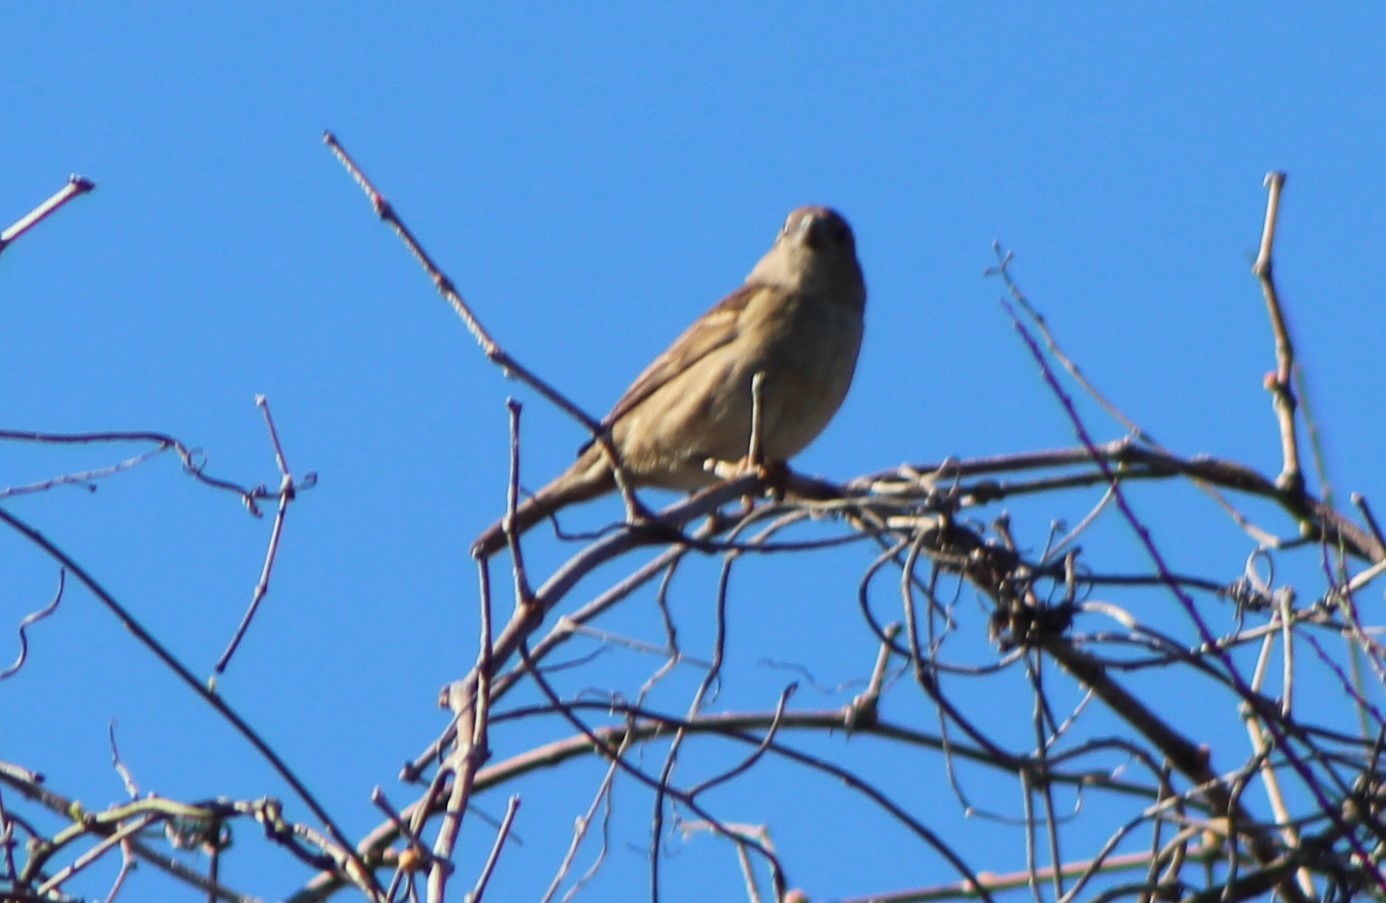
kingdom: Animalia
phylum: Chordata
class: Aves
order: Passeriformes
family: Passeridae
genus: Passer
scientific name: Passer domesticus
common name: House sparrow
